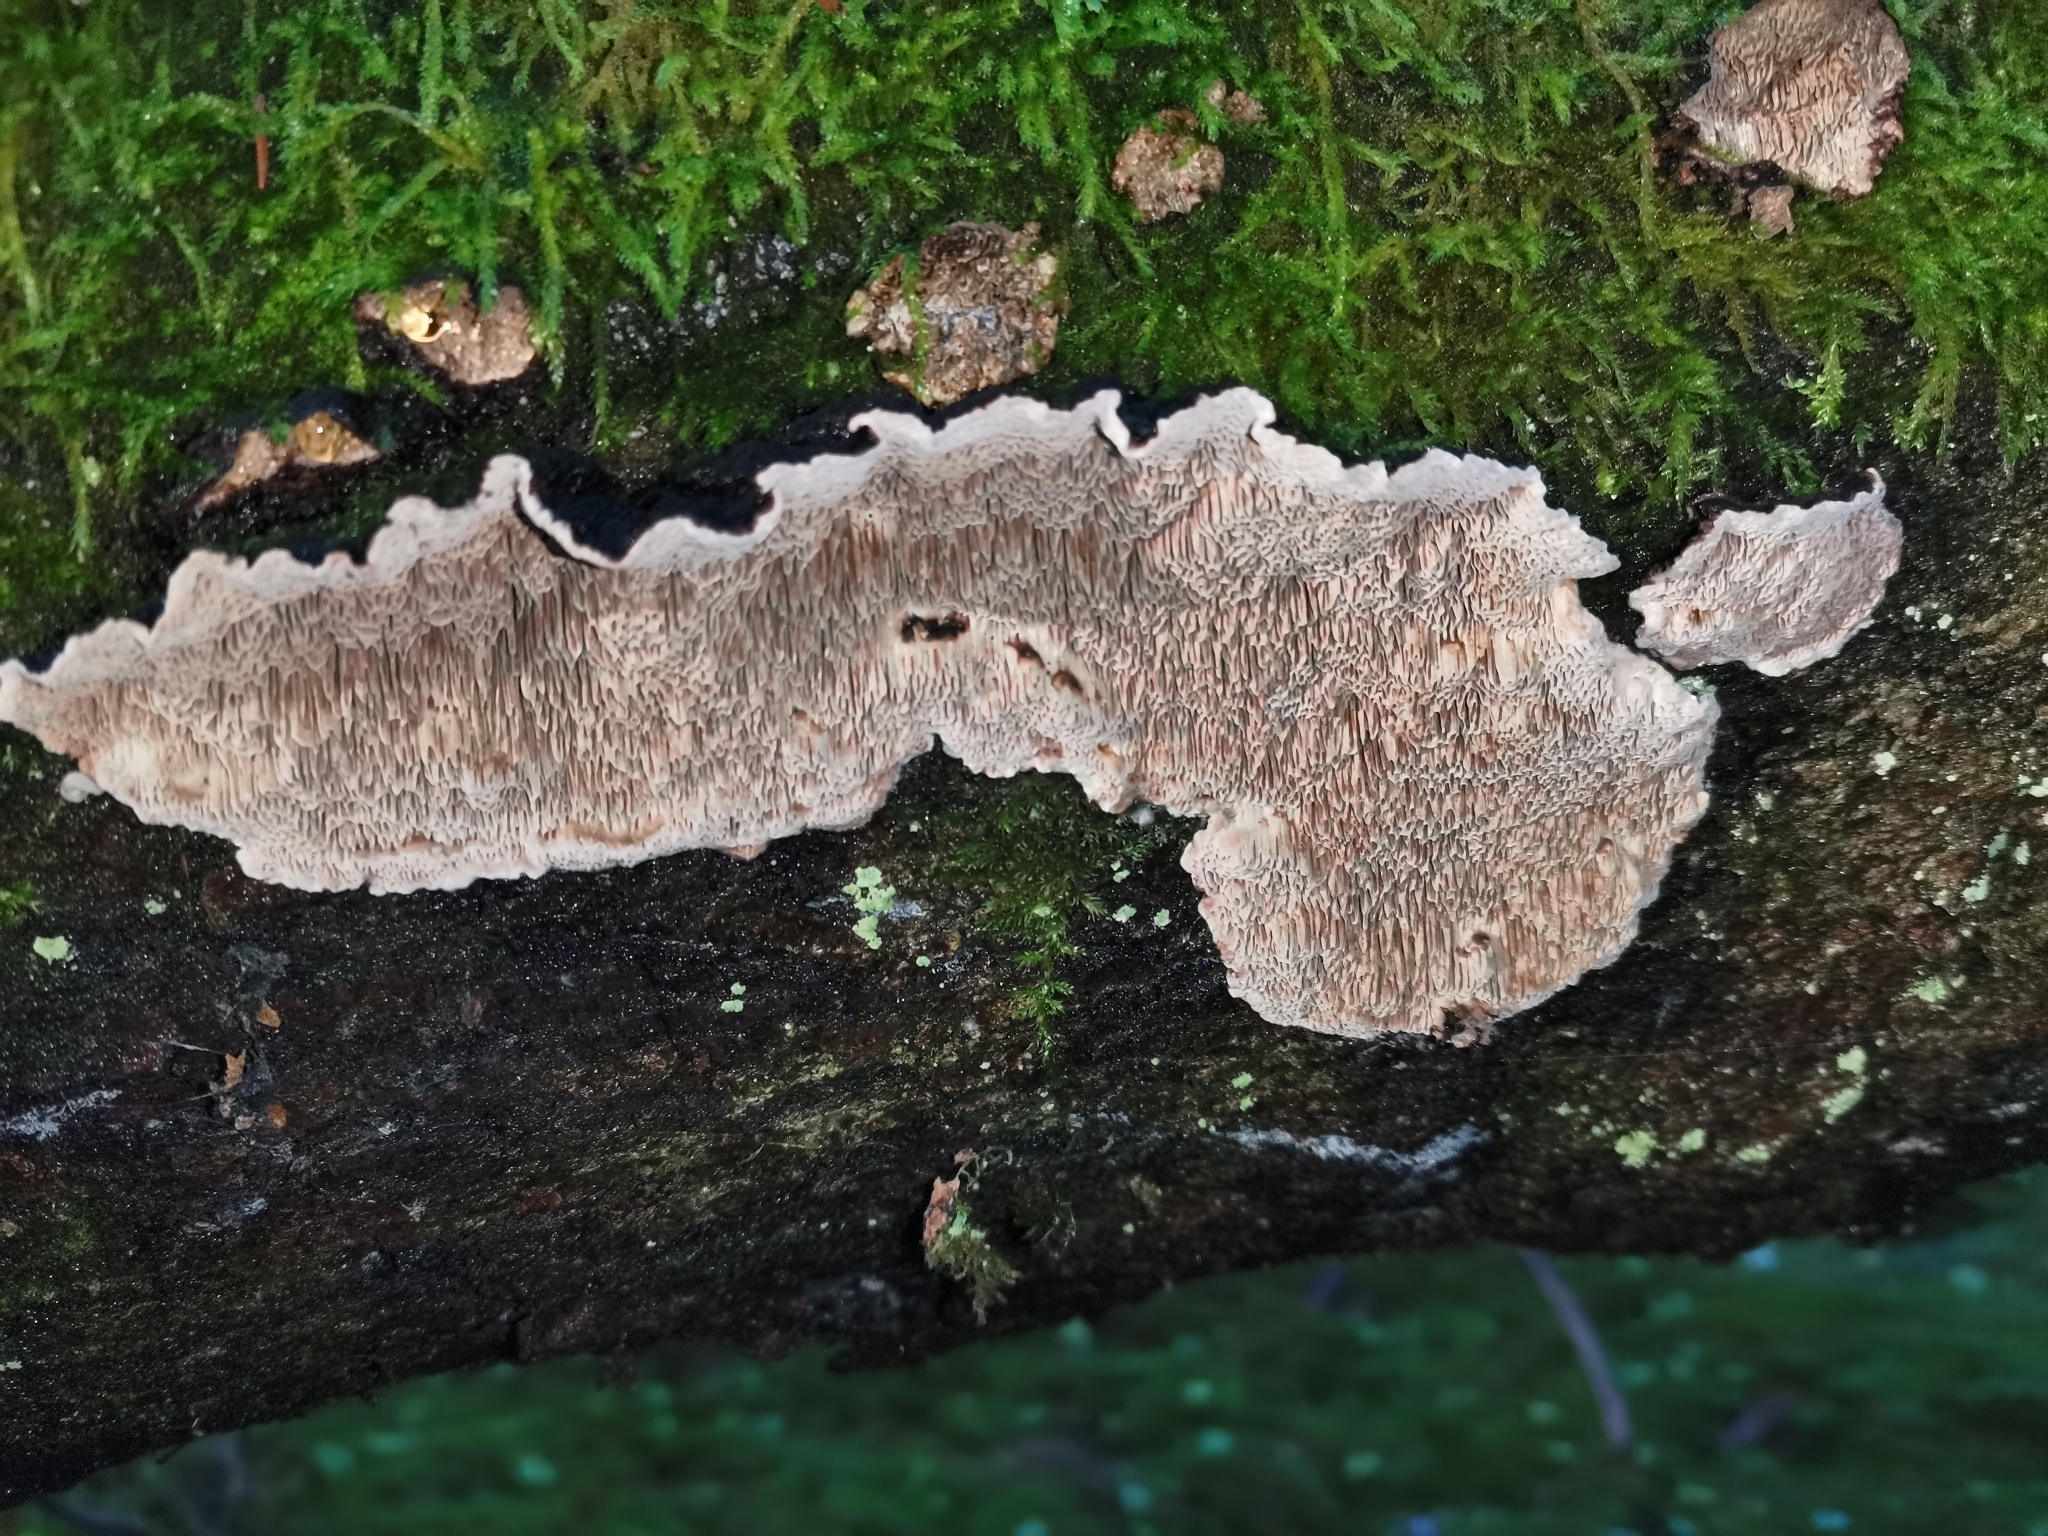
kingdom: Fungi
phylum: Basidiomycota
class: Agaricomycetes
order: Polyporales
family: Polyporaceae
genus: Podofomes
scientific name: Podofomes mollis
